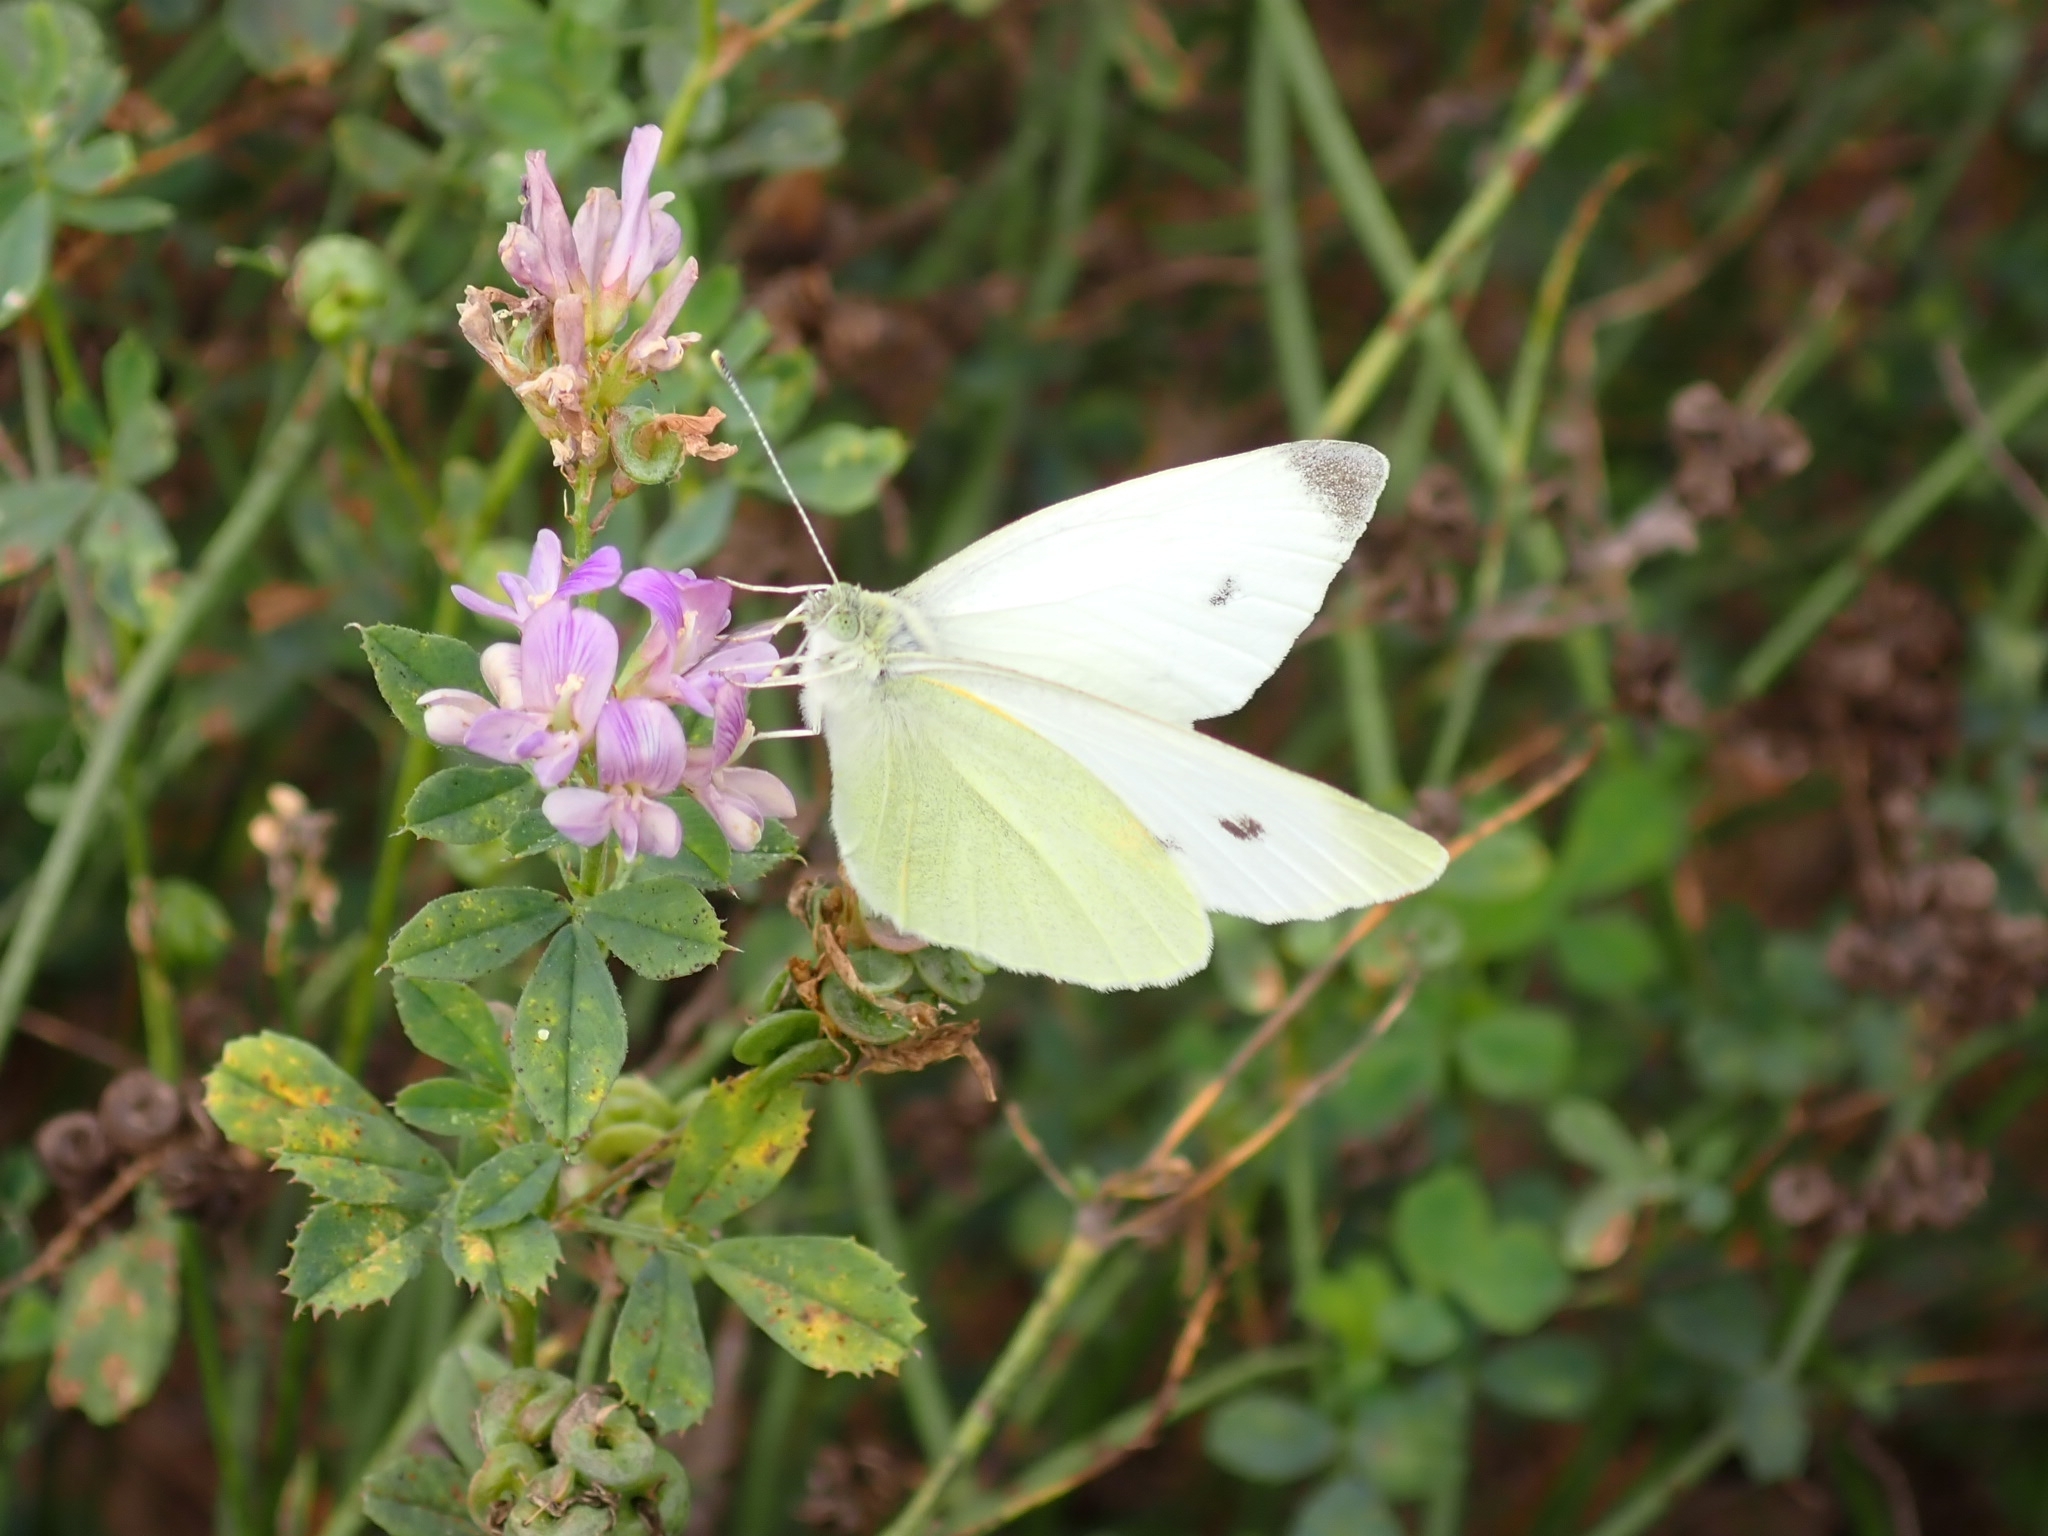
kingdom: Animalia
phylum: Arthropoda
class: Insecta
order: Lepidoptera
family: Pieridae
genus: Pieris
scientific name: Pieris rapae
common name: Small white
